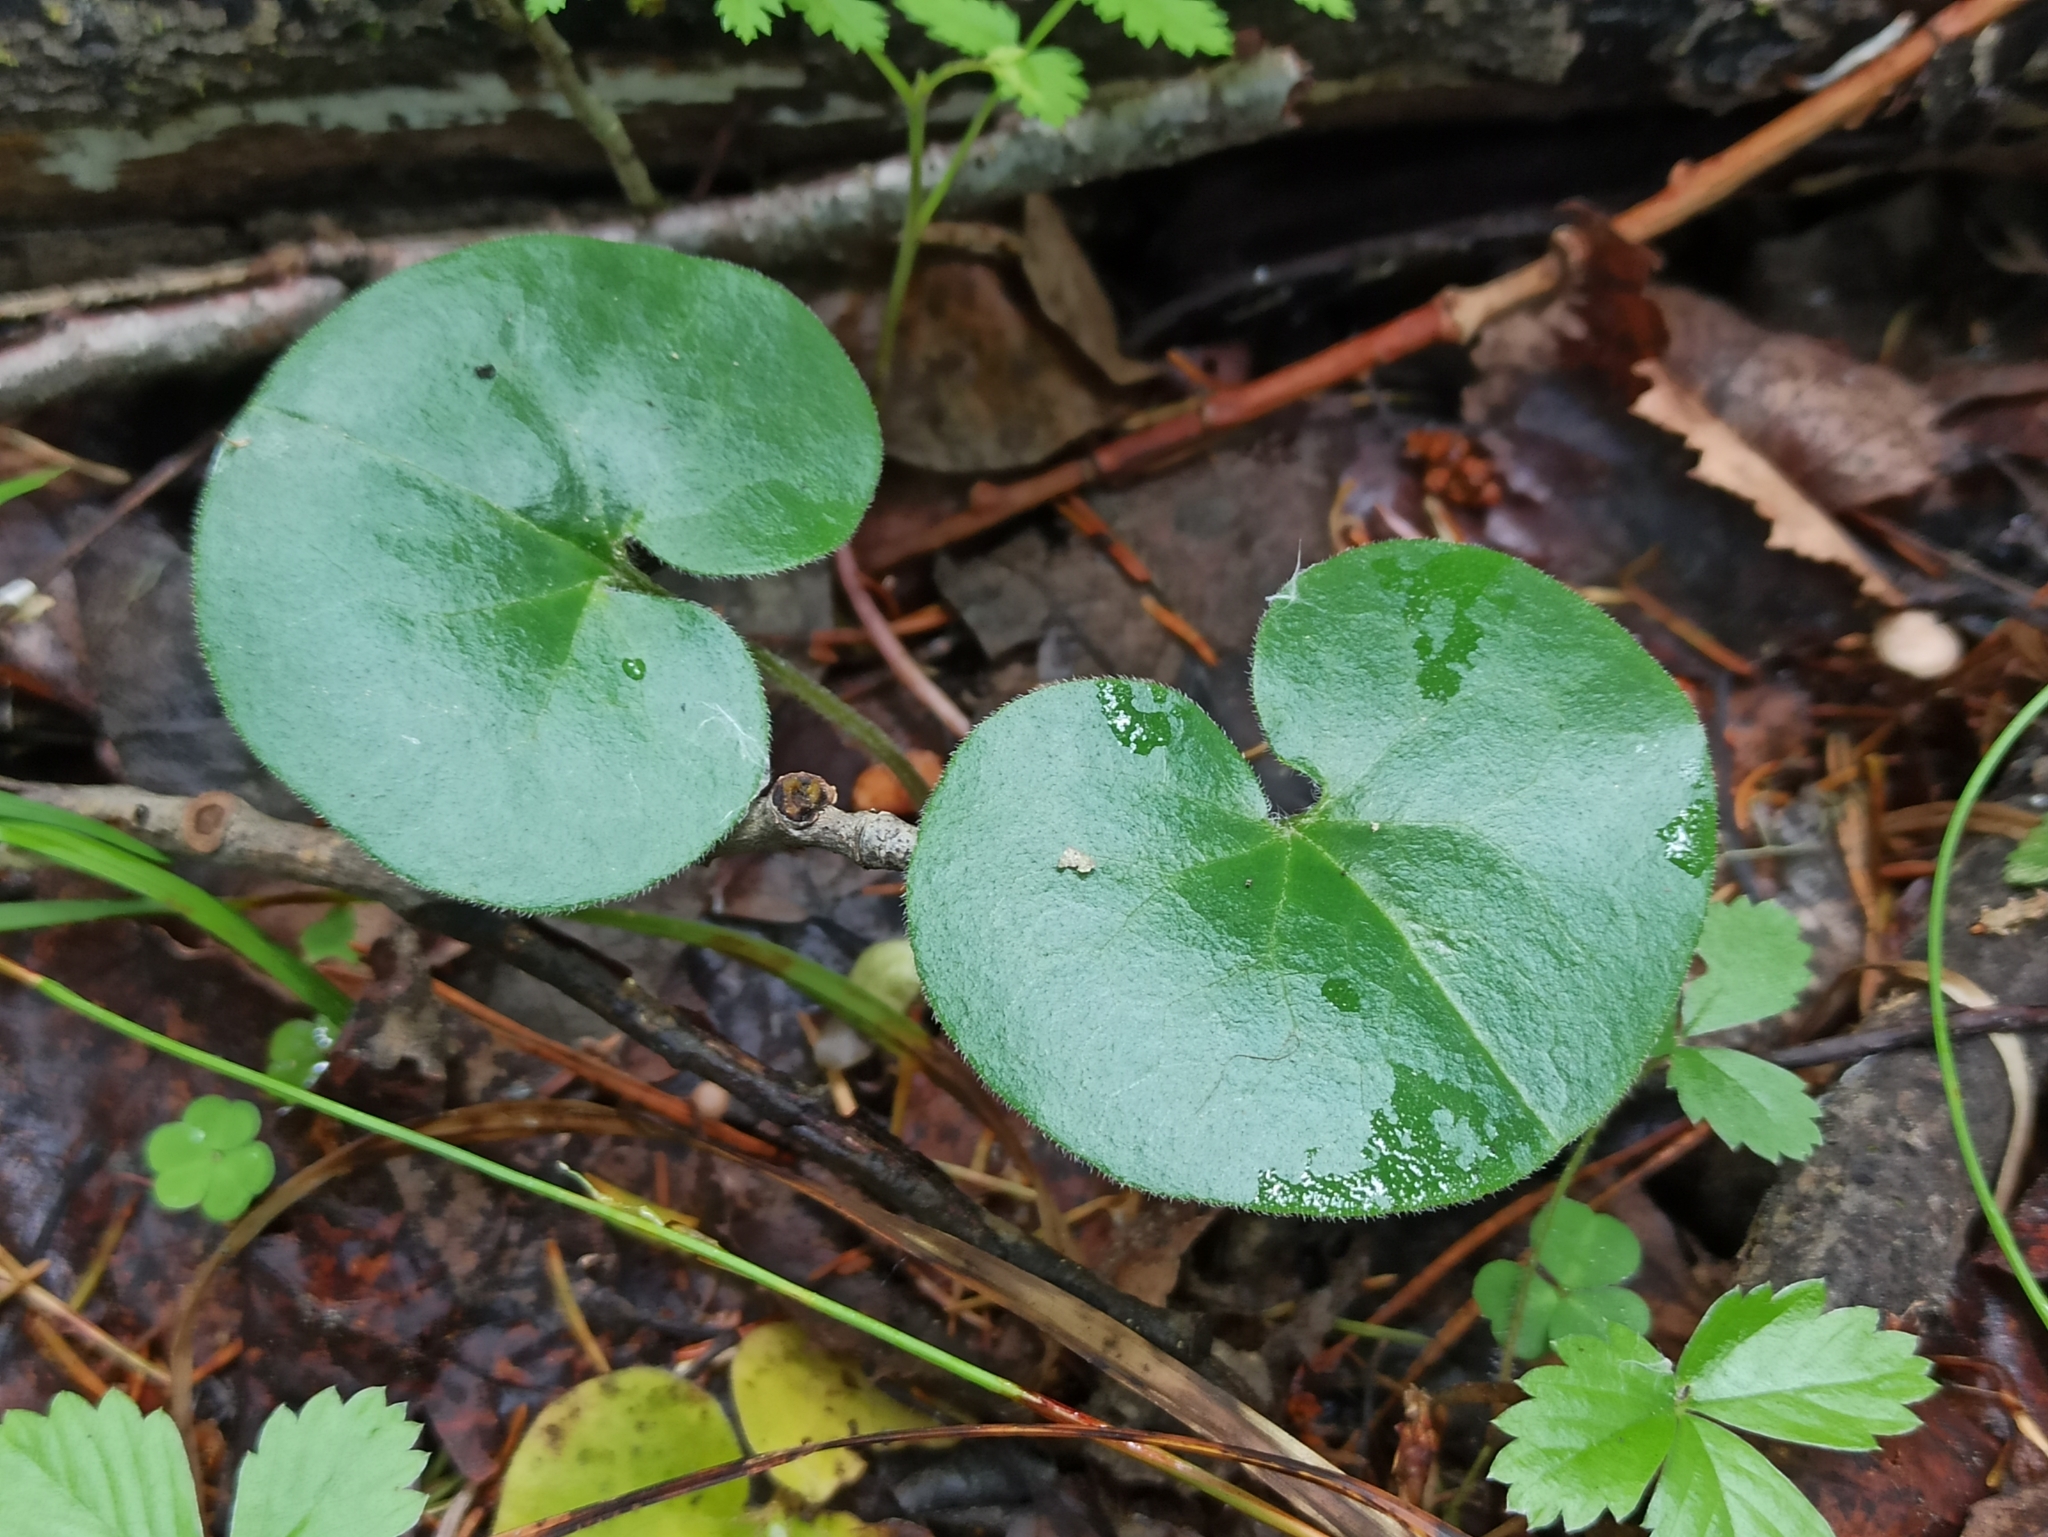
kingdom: Plantae
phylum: Tracheophyta
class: Magnoliopsida
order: Piperales
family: Aristolochiaceae
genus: Asarum
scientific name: Asarum europaeum
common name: Asarabacca
